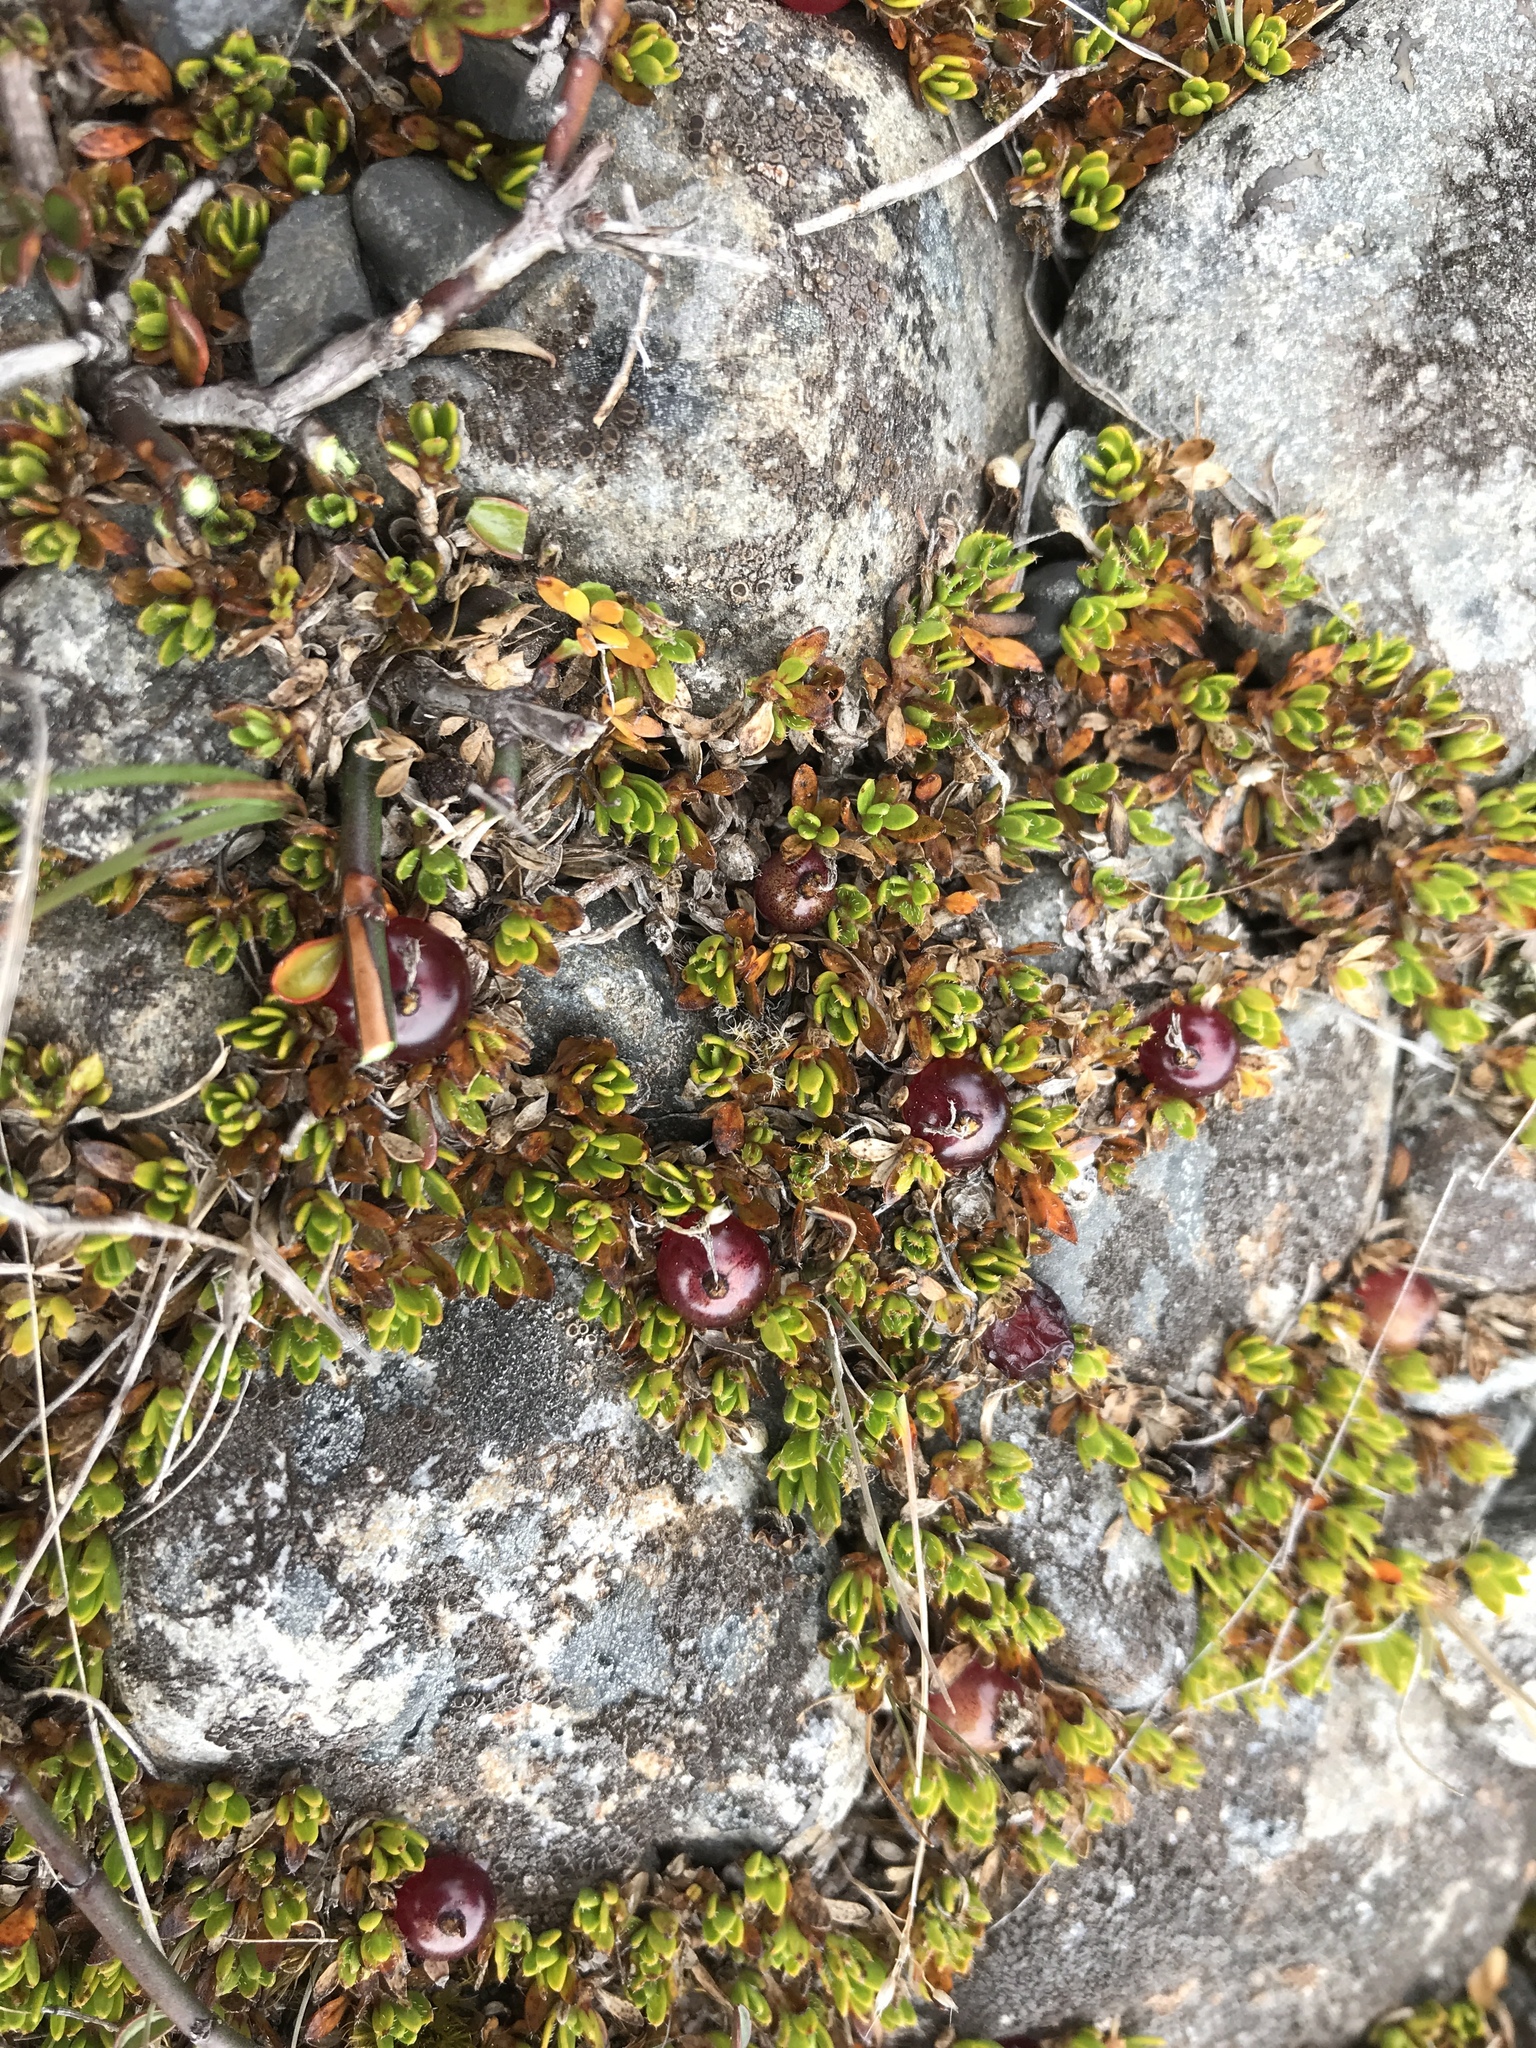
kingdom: Plantae
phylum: Tracheophyta
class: Magnoliopsida
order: Gentianales
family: Rubiaceae
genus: Coprosma
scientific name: Coprosma atropurpurea
